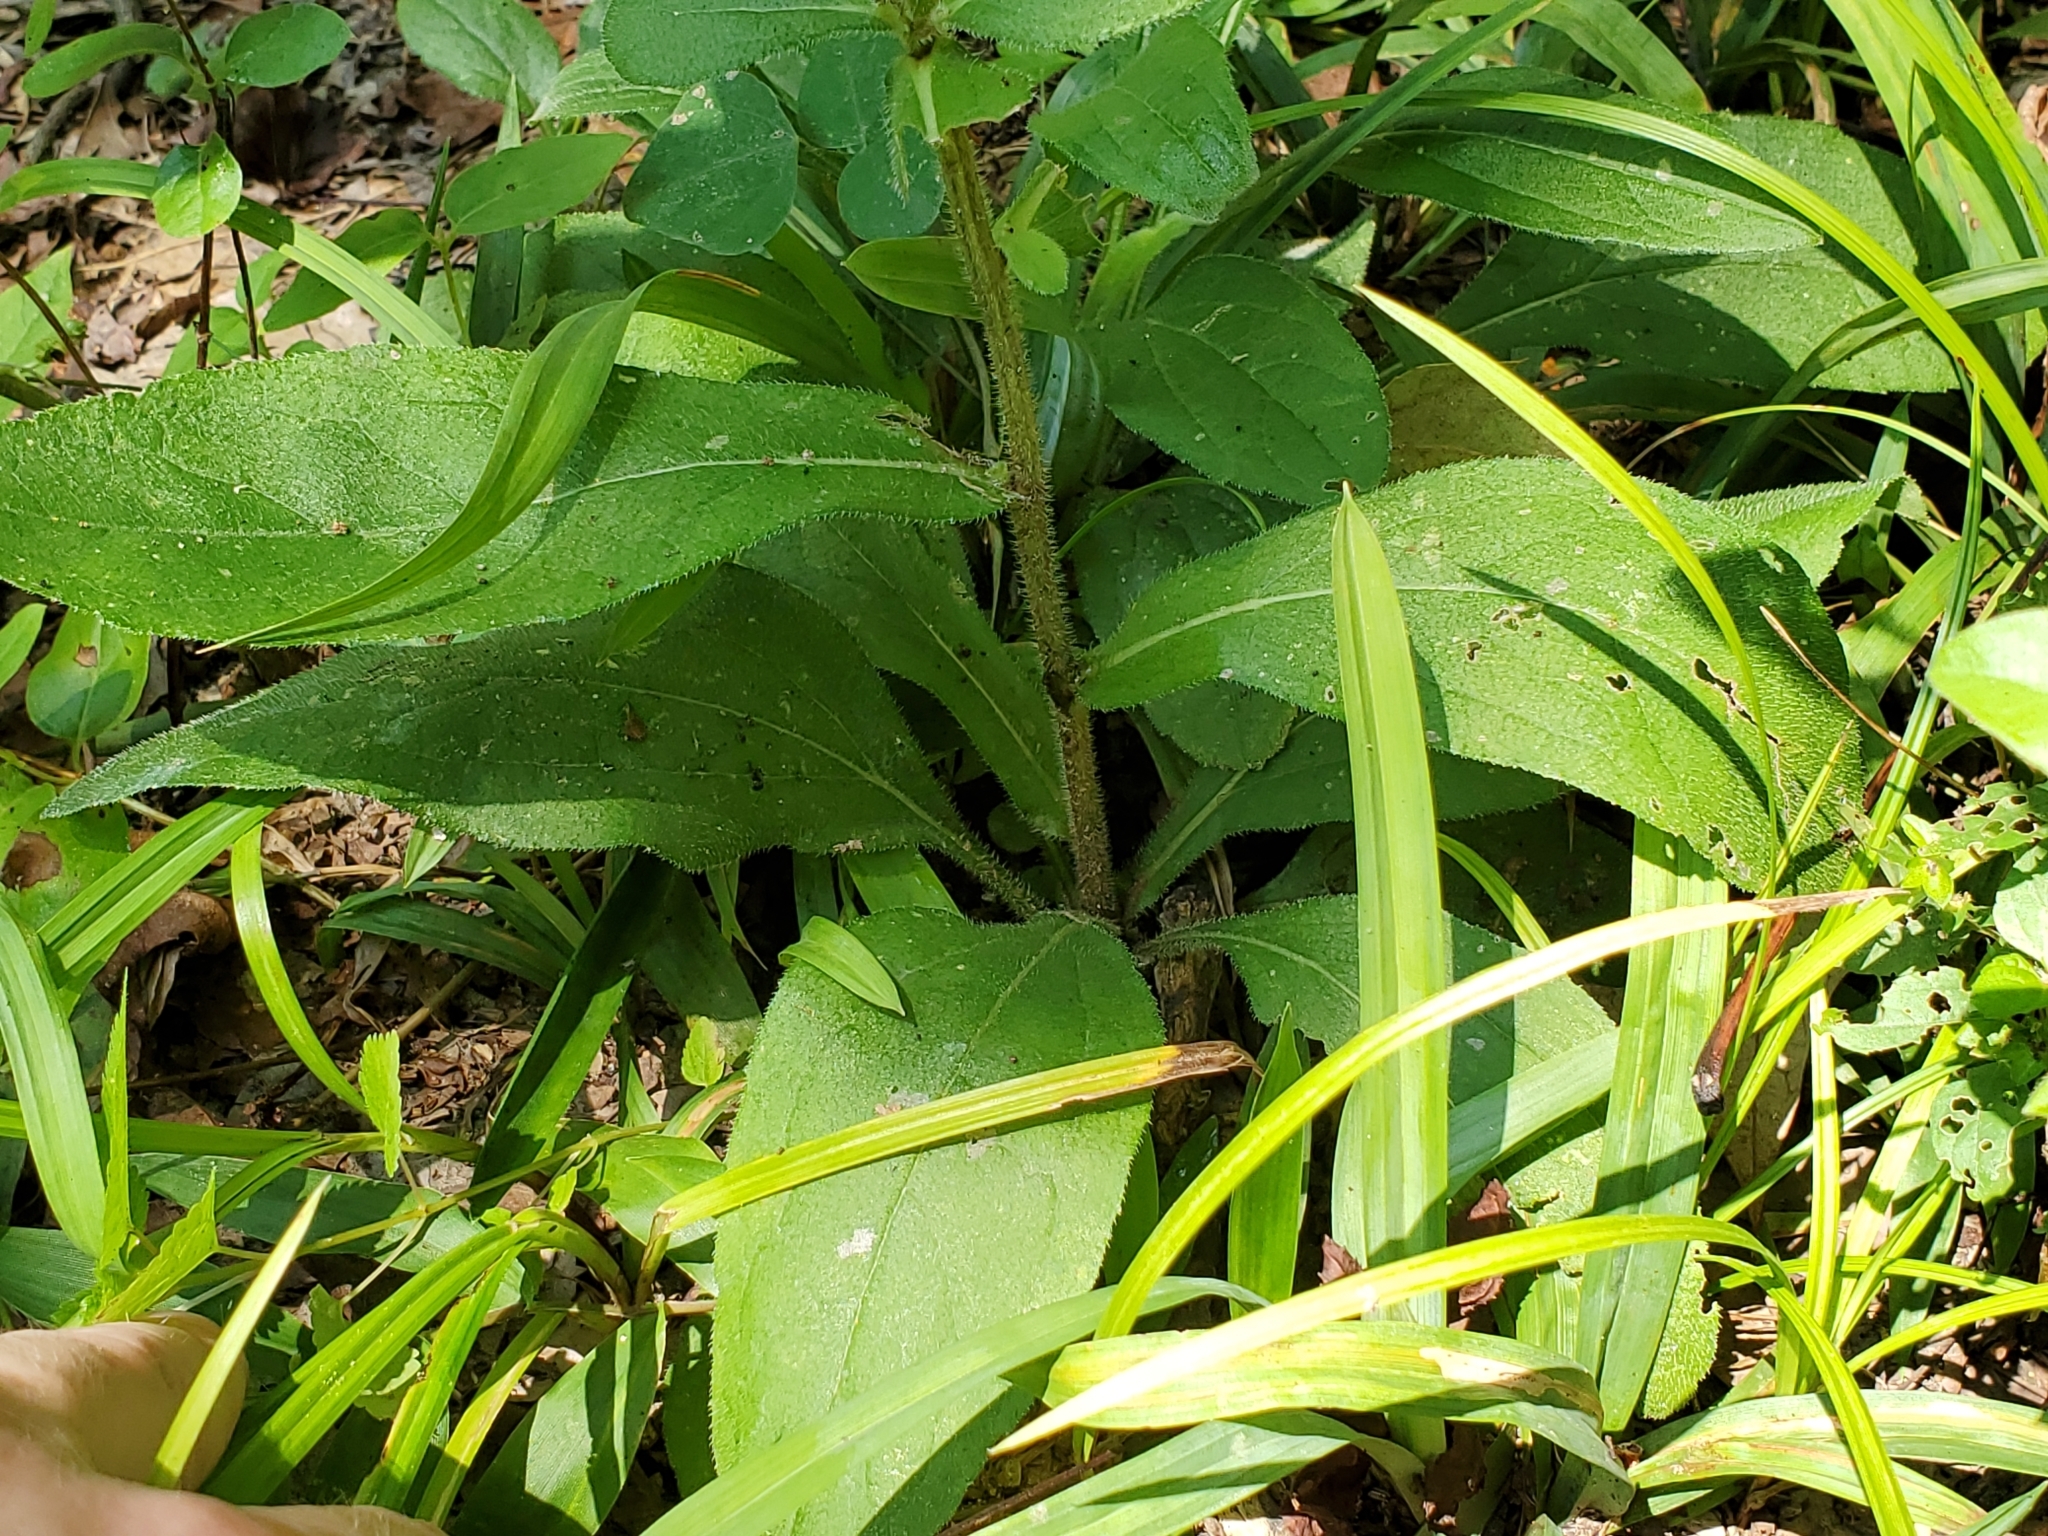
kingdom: Plantae
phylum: Tracheophyta
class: Magnoliopsida
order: Lamiales
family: Lamiaceae
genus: Perilla
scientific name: Perilla frutescens
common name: Perilla
